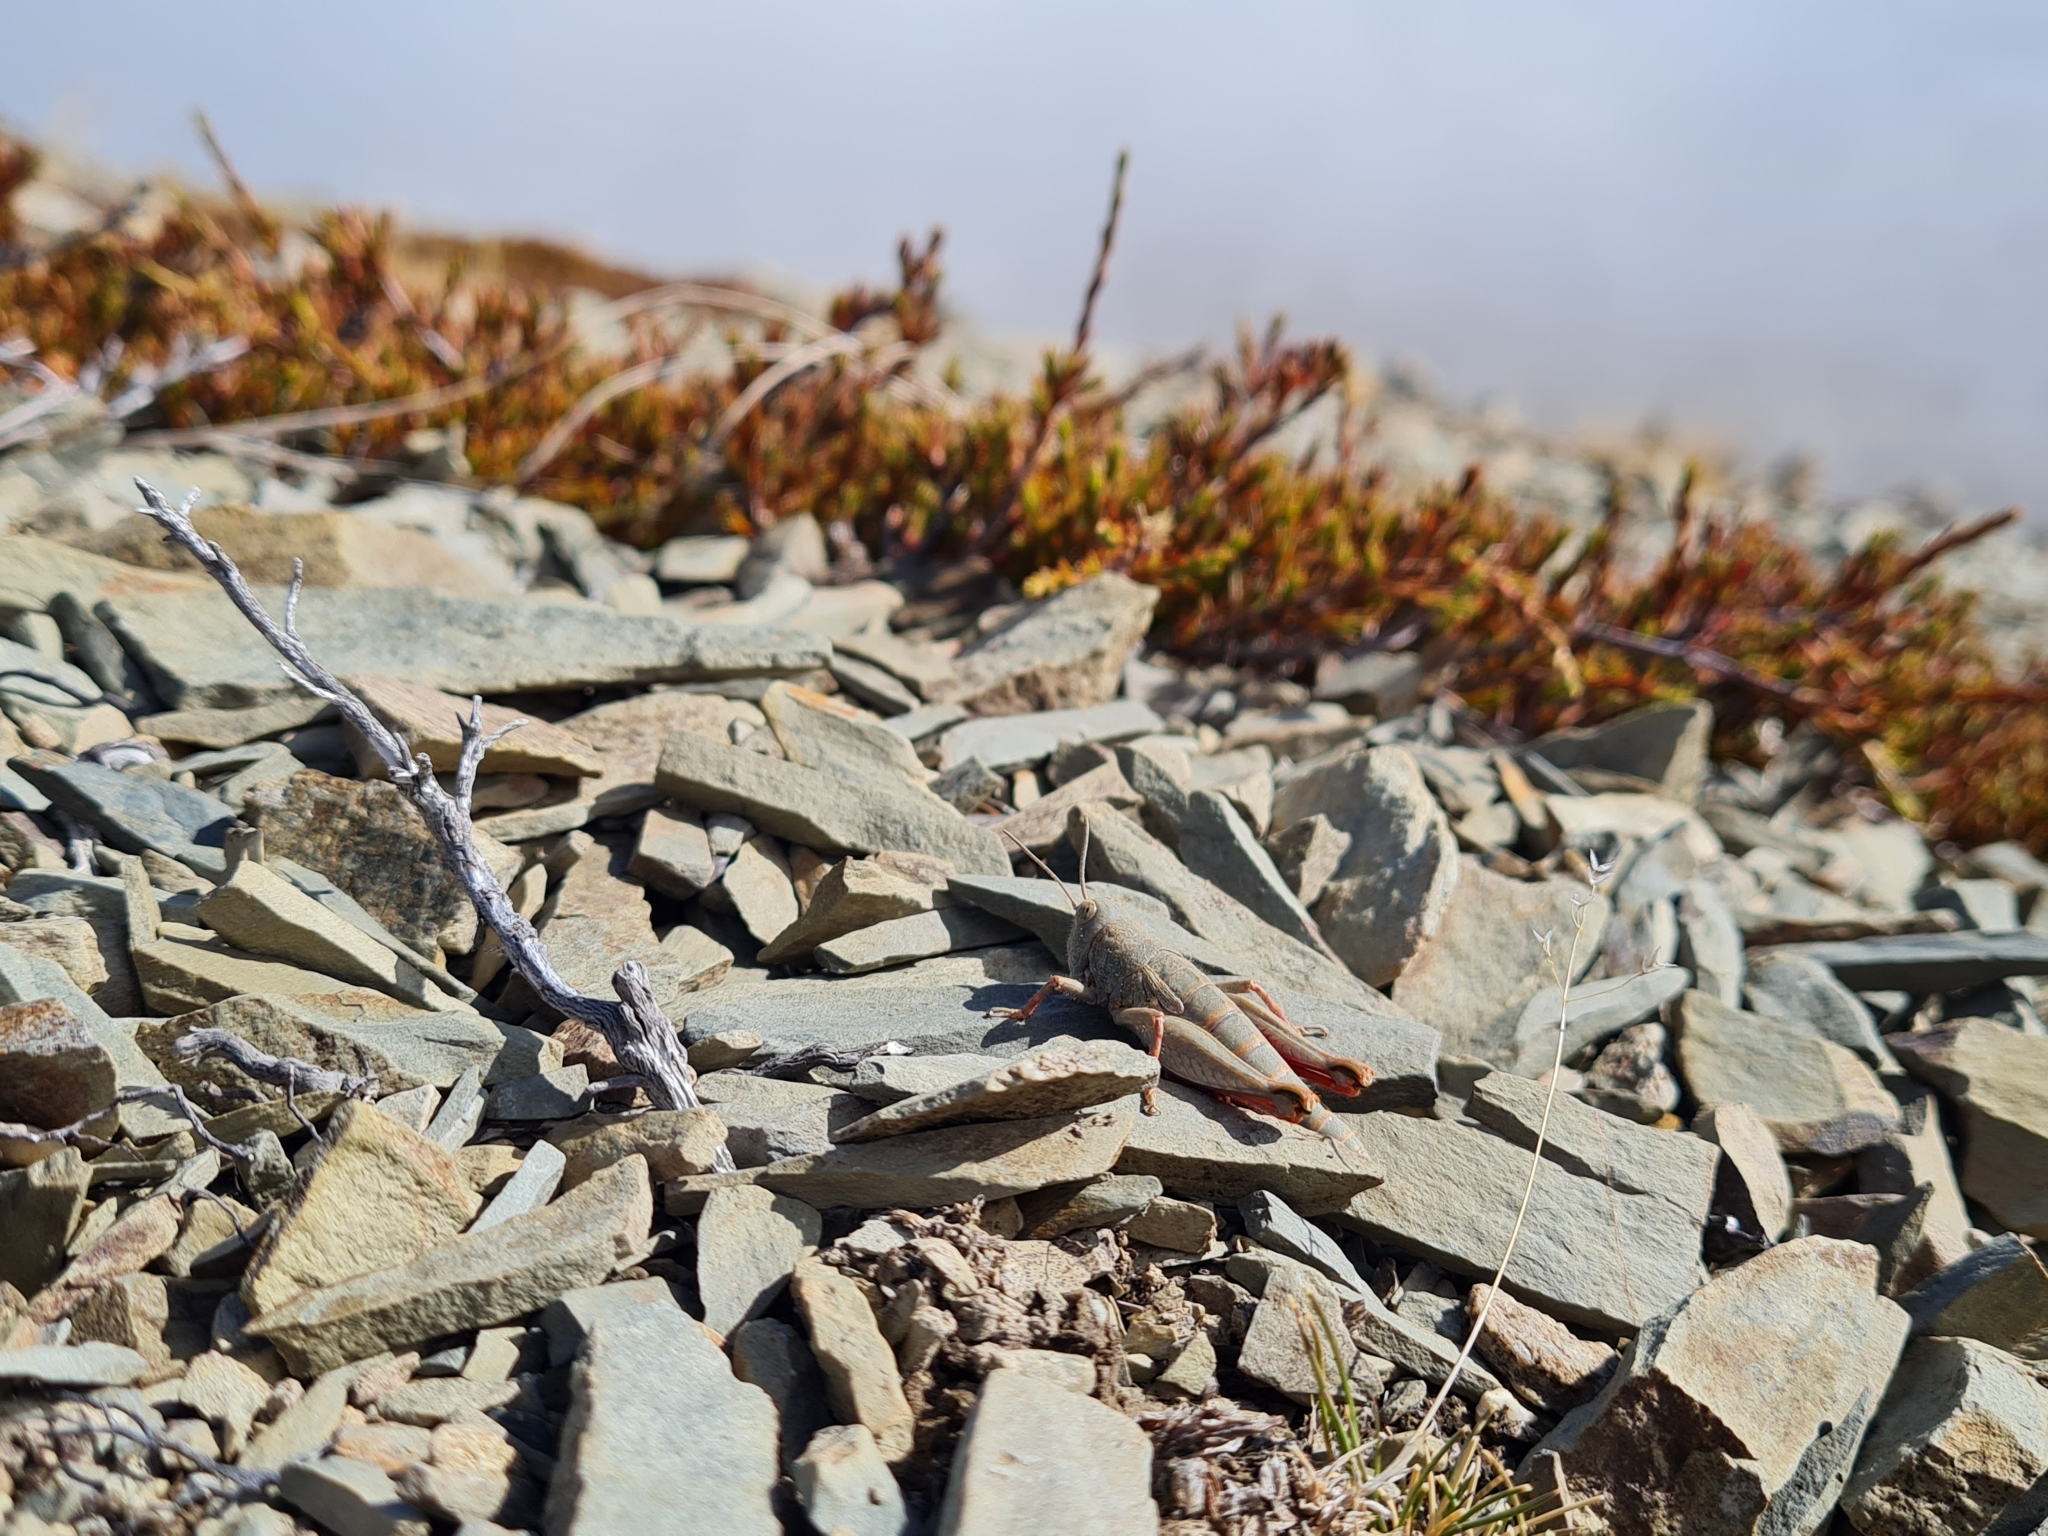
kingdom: Animalia
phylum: Arthropoda
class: Insecta
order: Orthoptera
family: Acrididae
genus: Sigaus
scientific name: Sigaus
